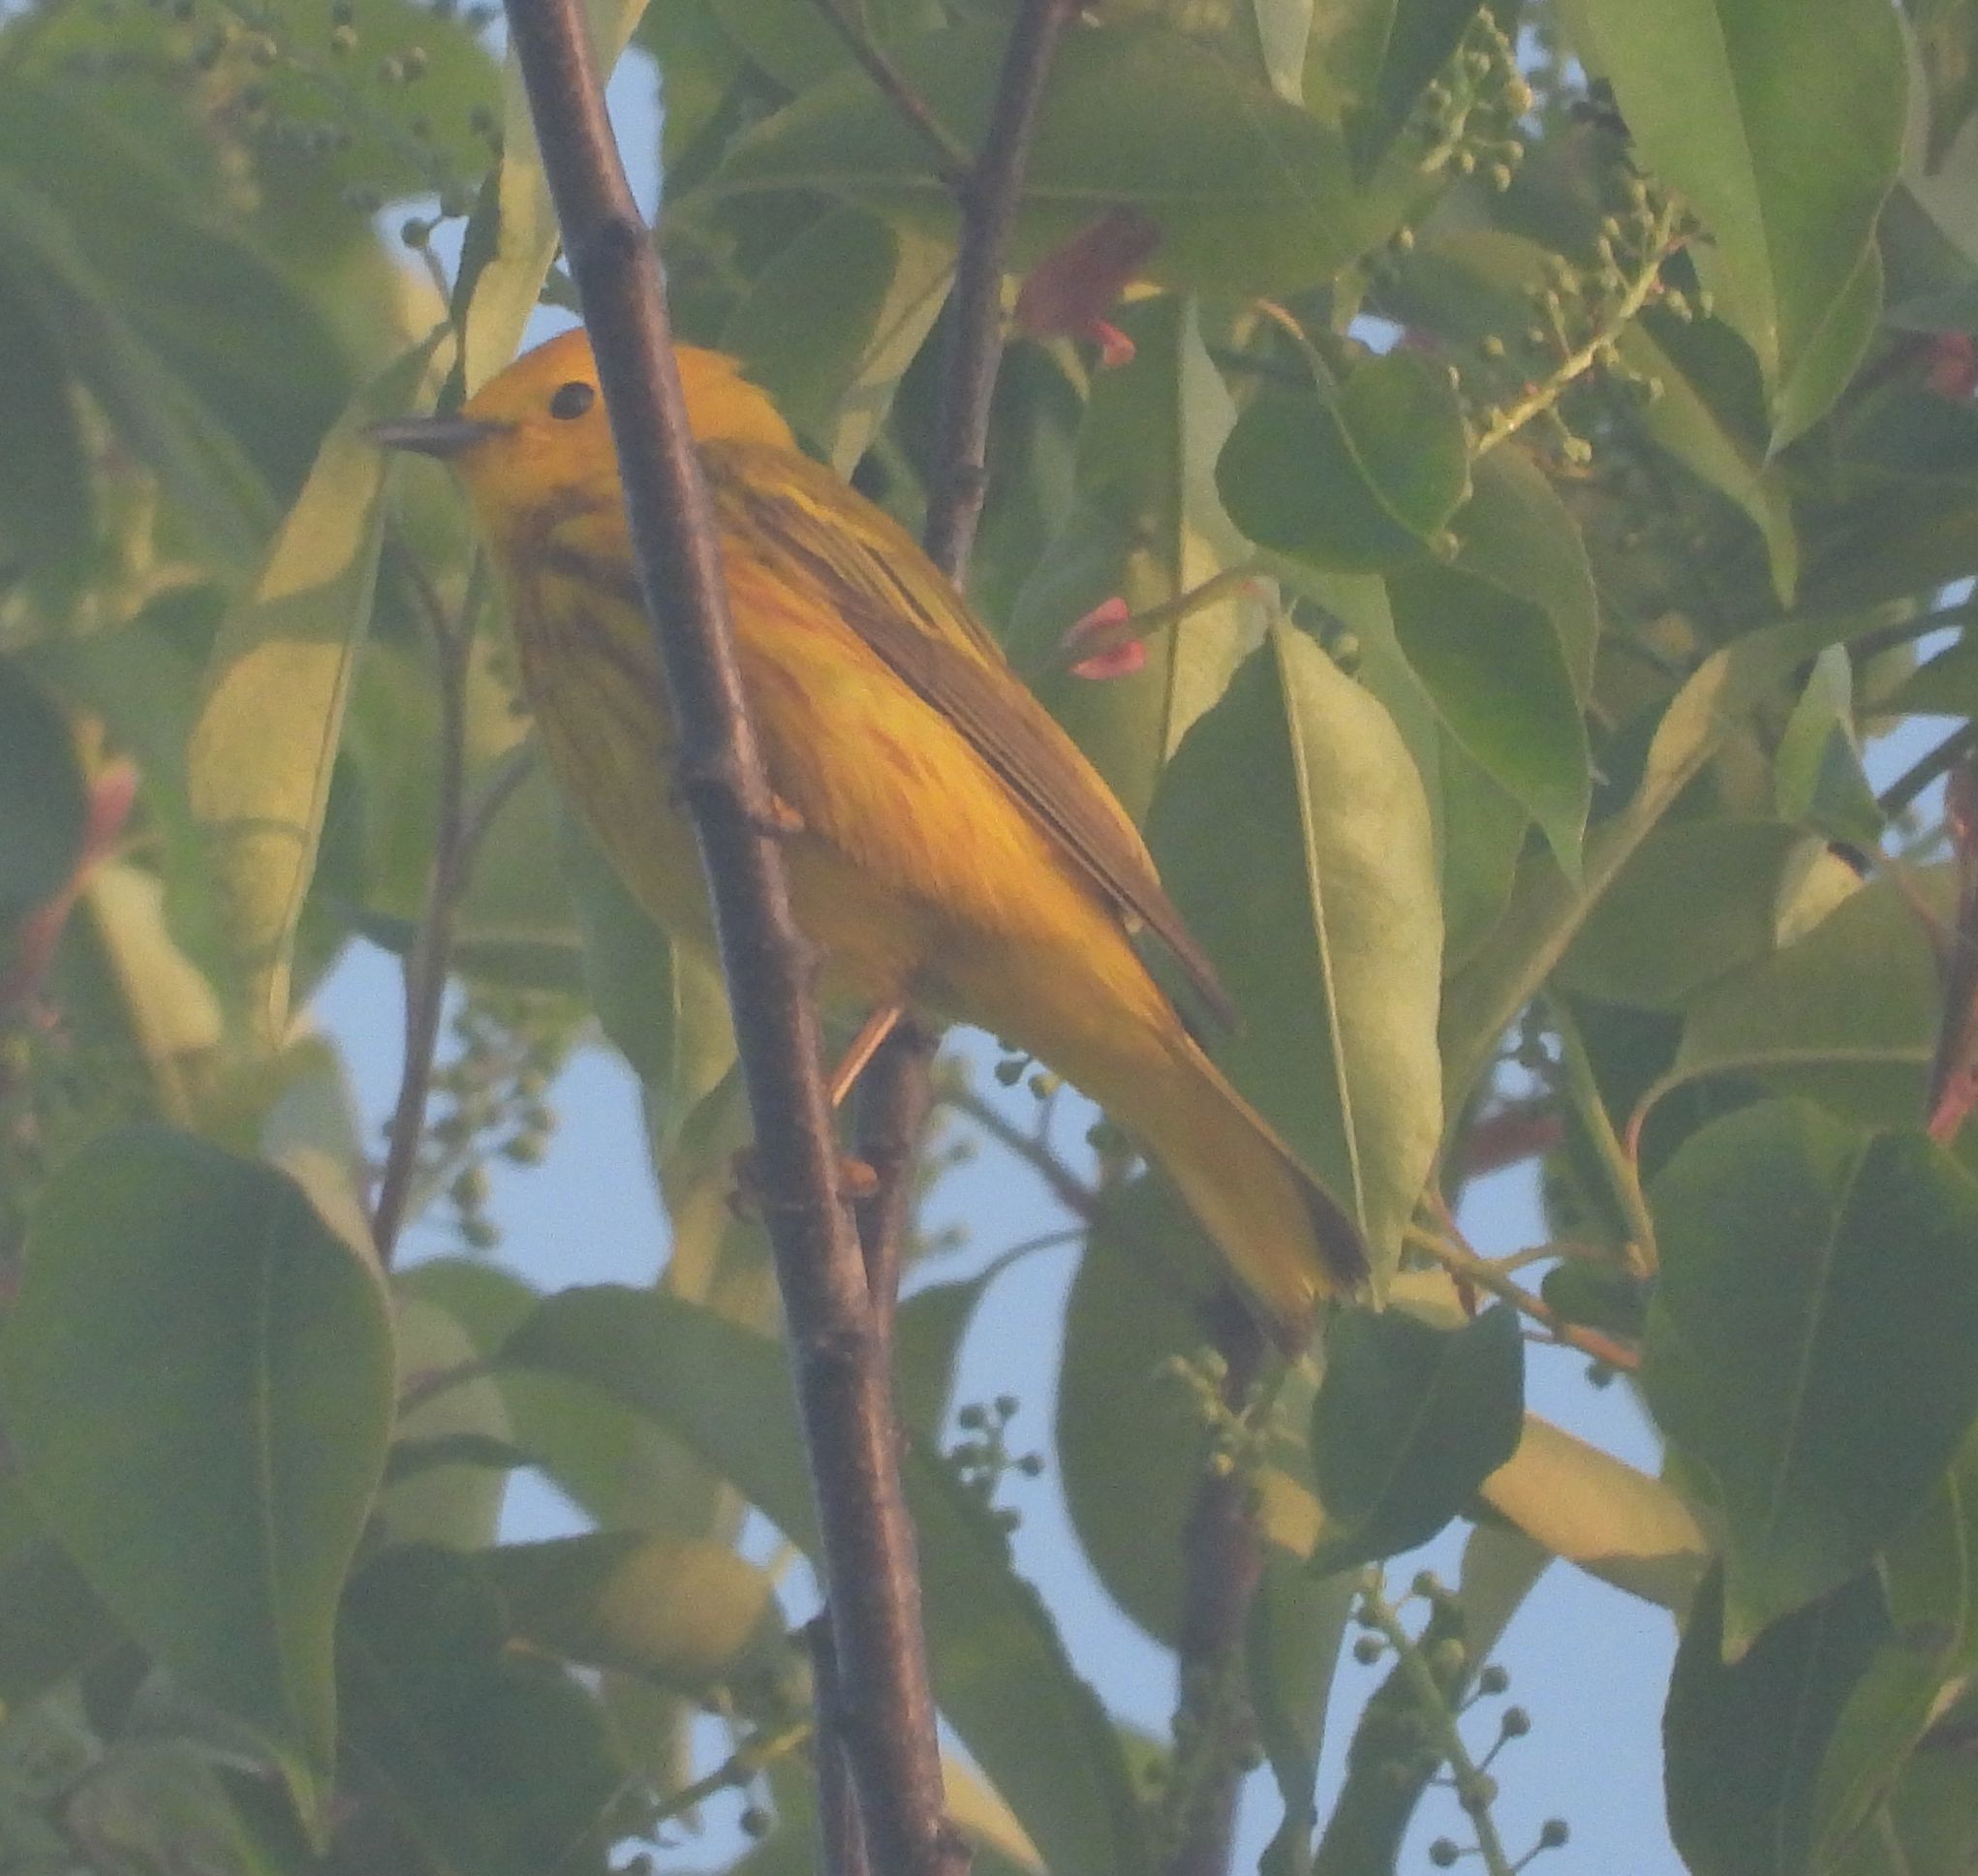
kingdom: Animalia
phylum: Chordata
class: Aves
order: Passeriformes
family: Parulidae
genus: Setophaga
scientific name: Setophaga petechia
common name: Yellow warbler
